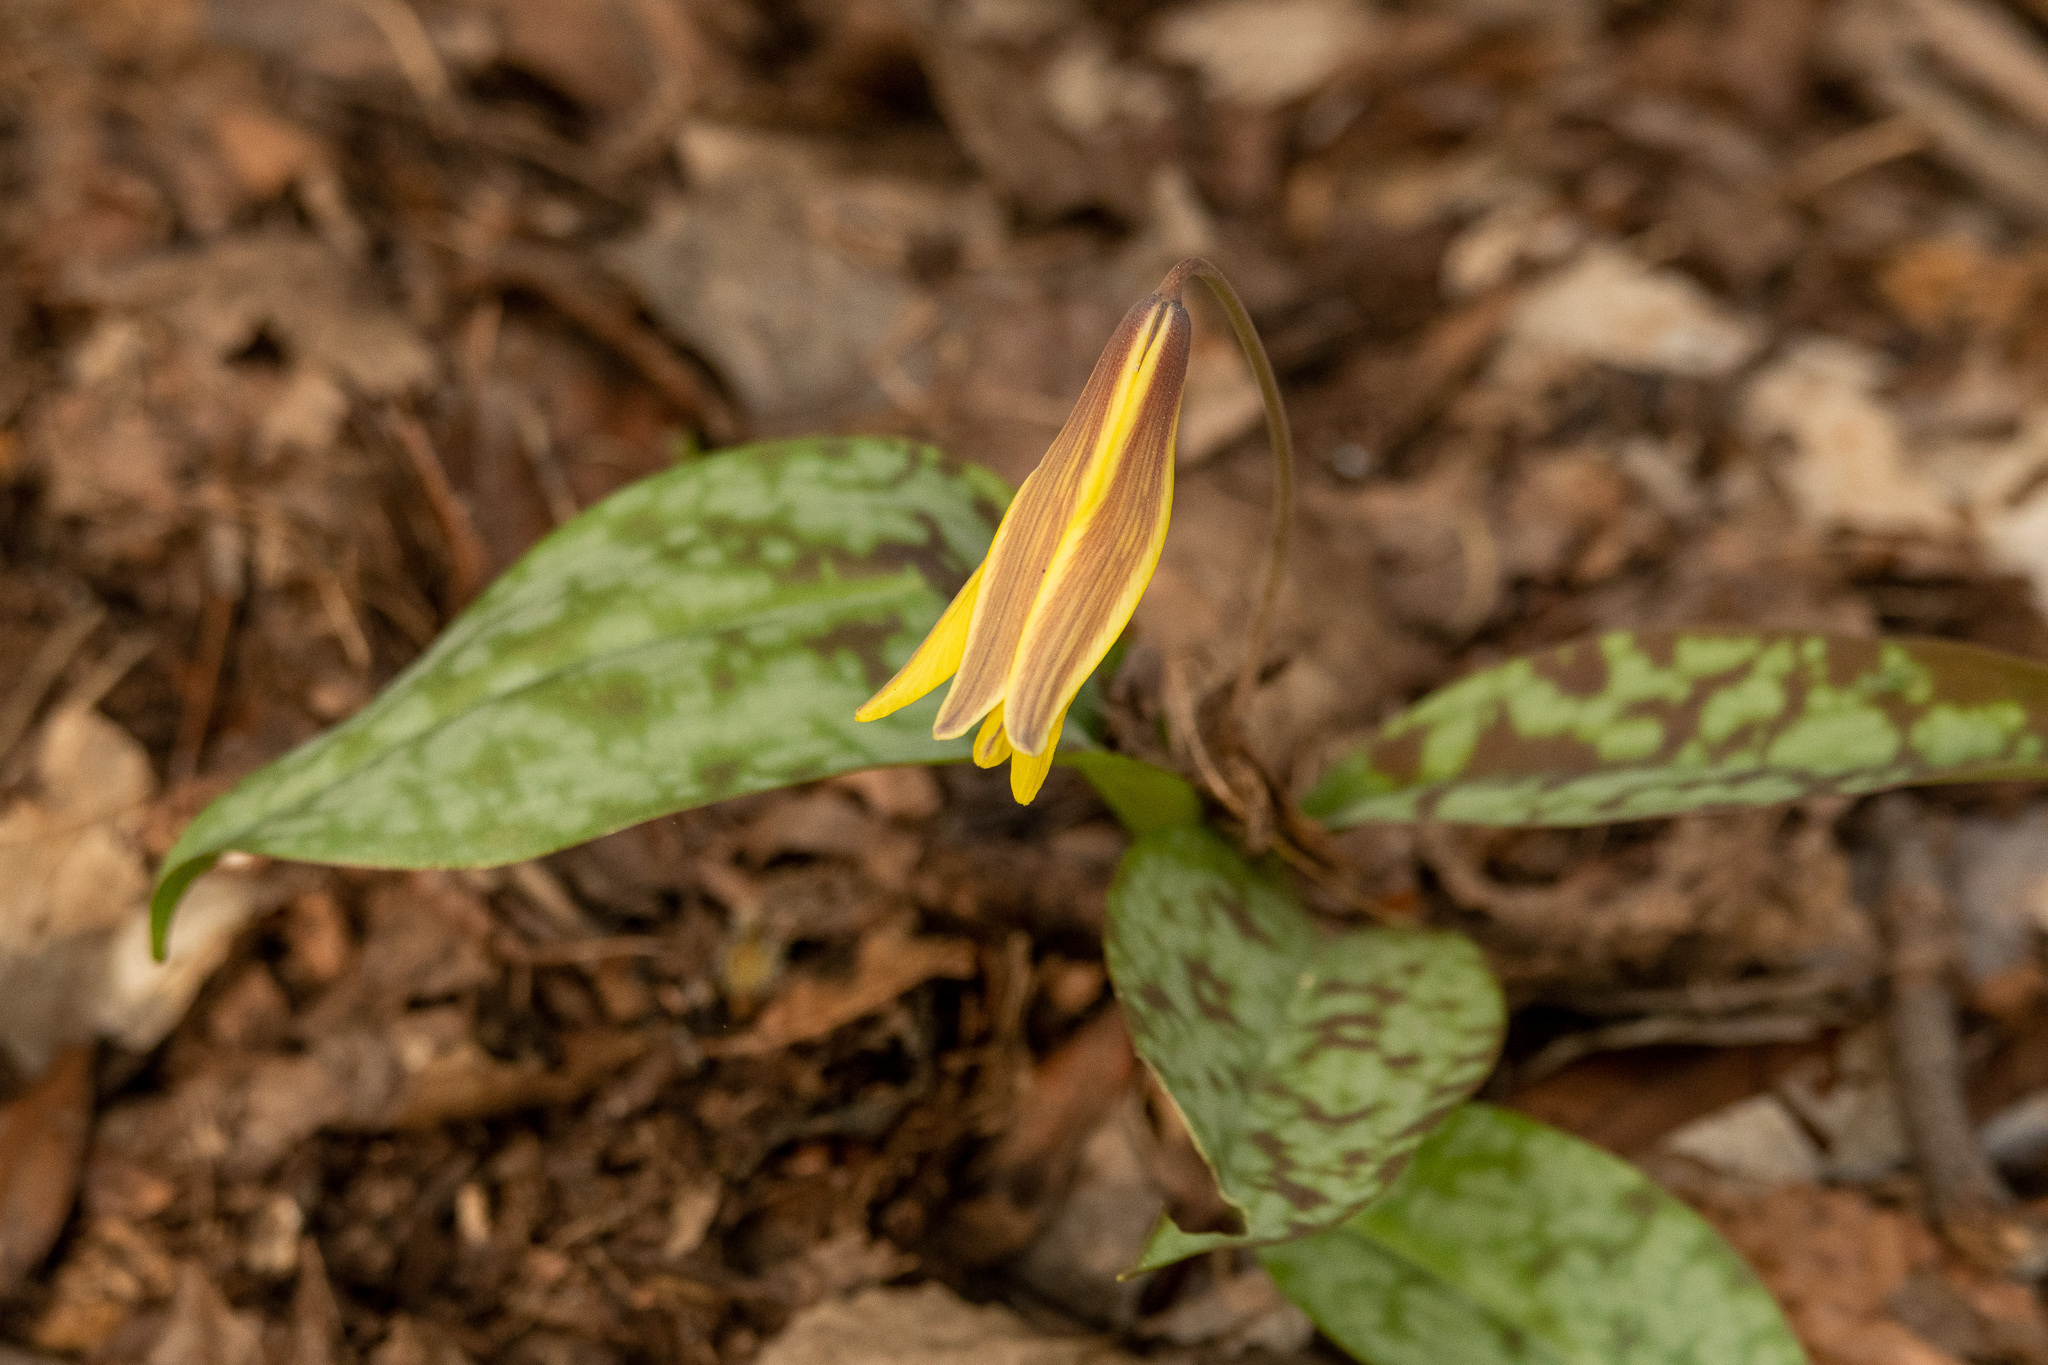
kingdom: Plantae
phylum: Tracheophyta
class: Liliopsida
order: Liliales
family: Liliaceae
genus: Erythronium
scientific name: Erythronium americanum
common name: Yellow adder's-tongue
